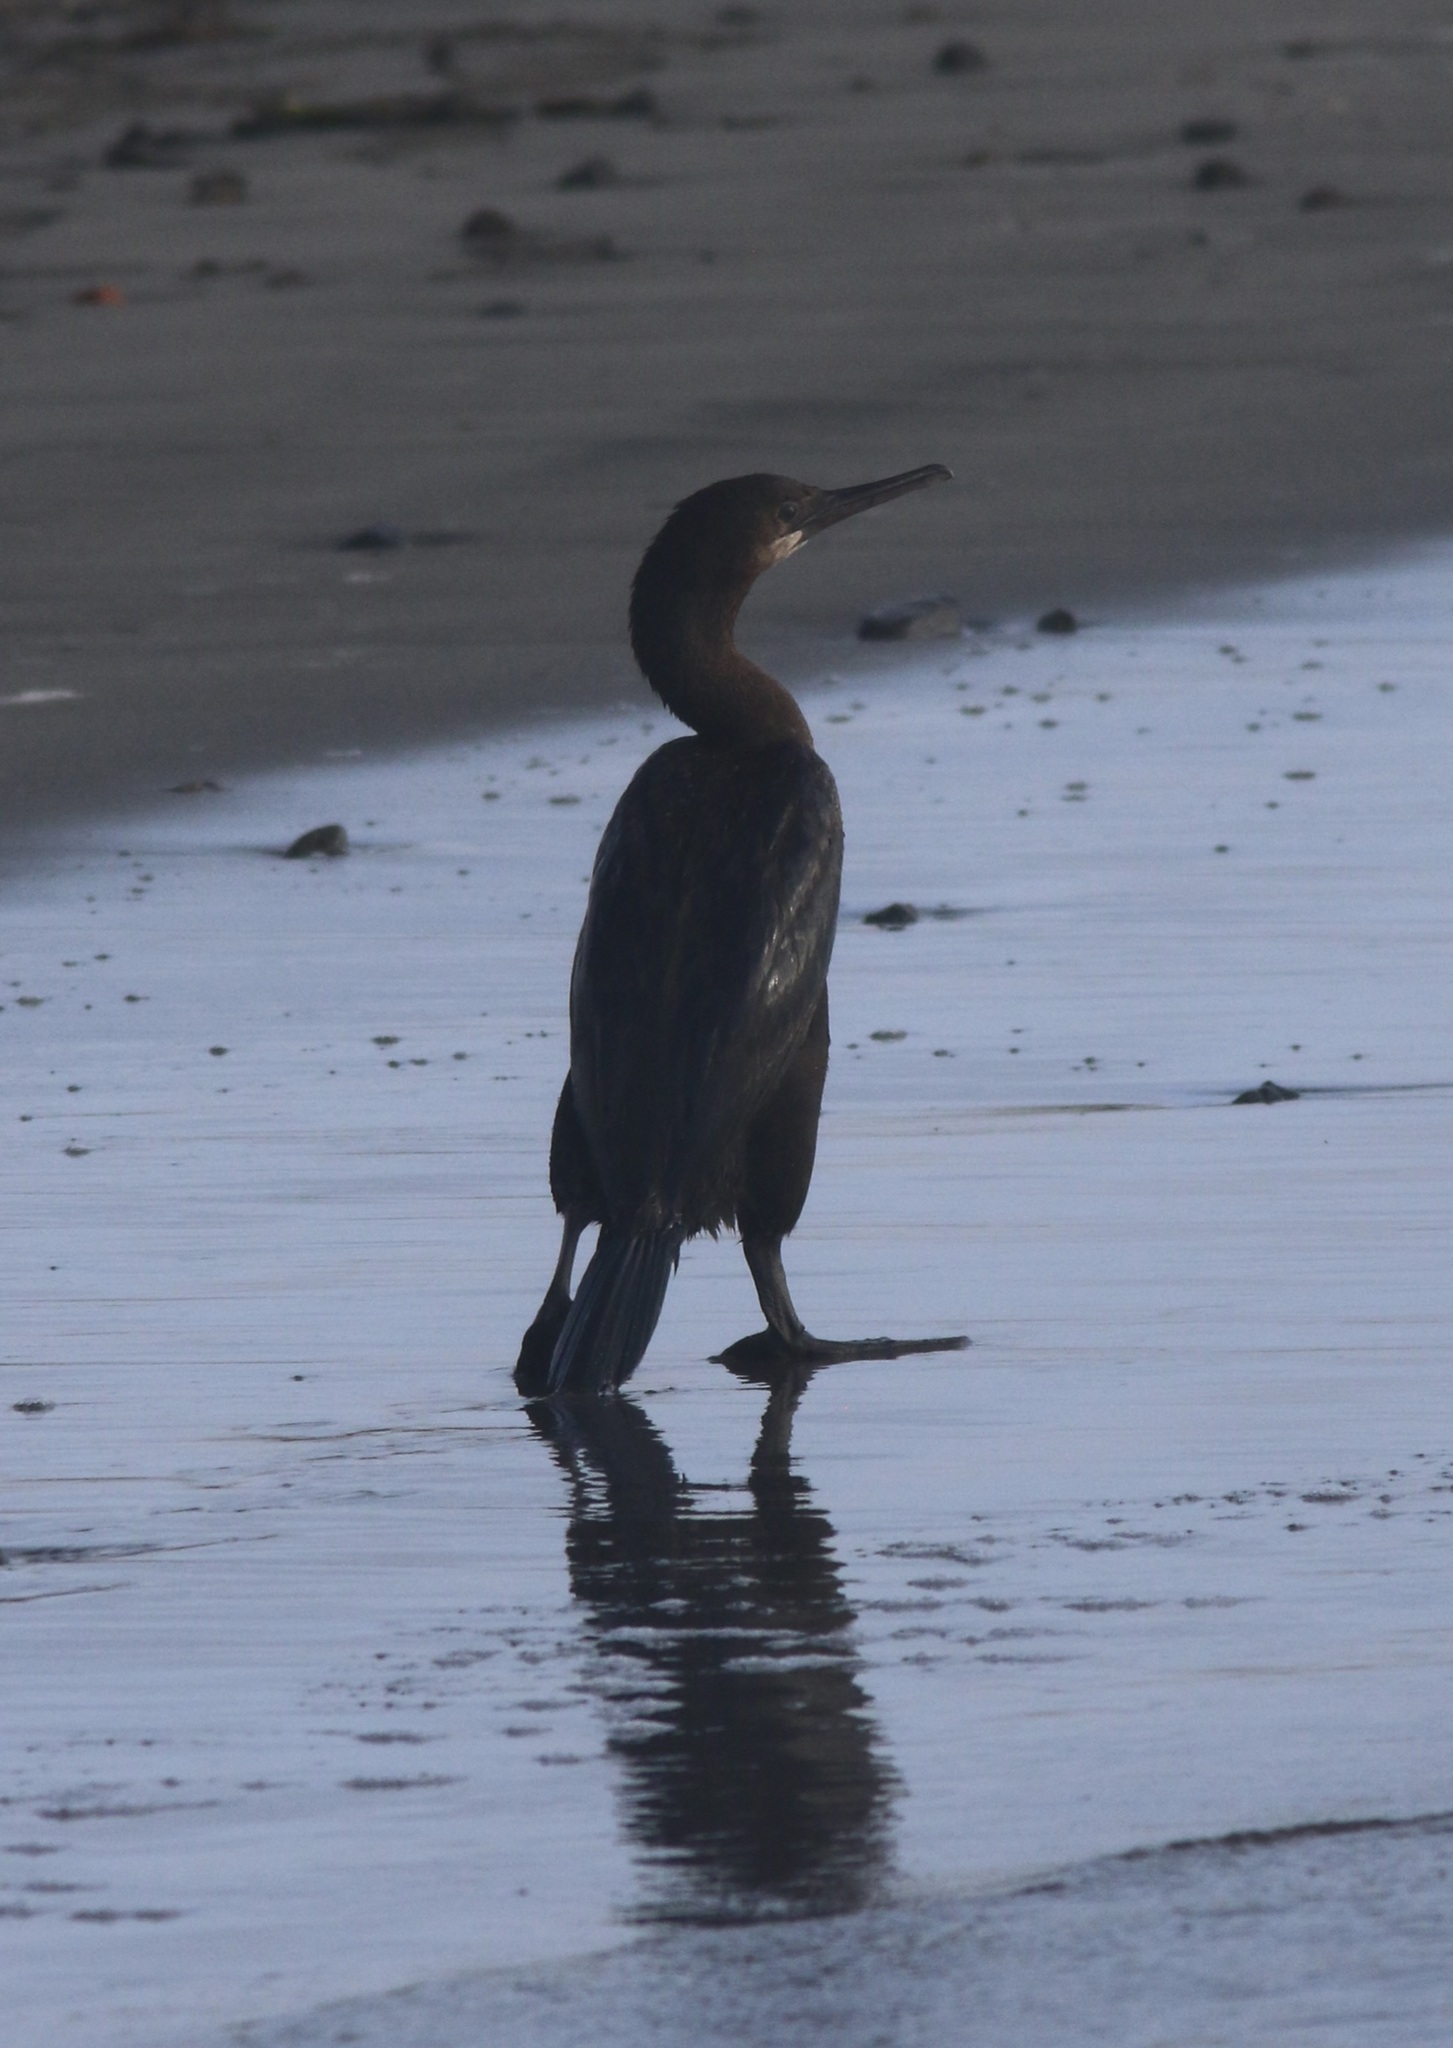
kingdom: Animalia
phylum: Chordata
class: Aves
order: Suliformes
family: Phalacrocoracidae
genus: Urile
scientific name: Urile penicillatus
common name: Brandt's cormorant
